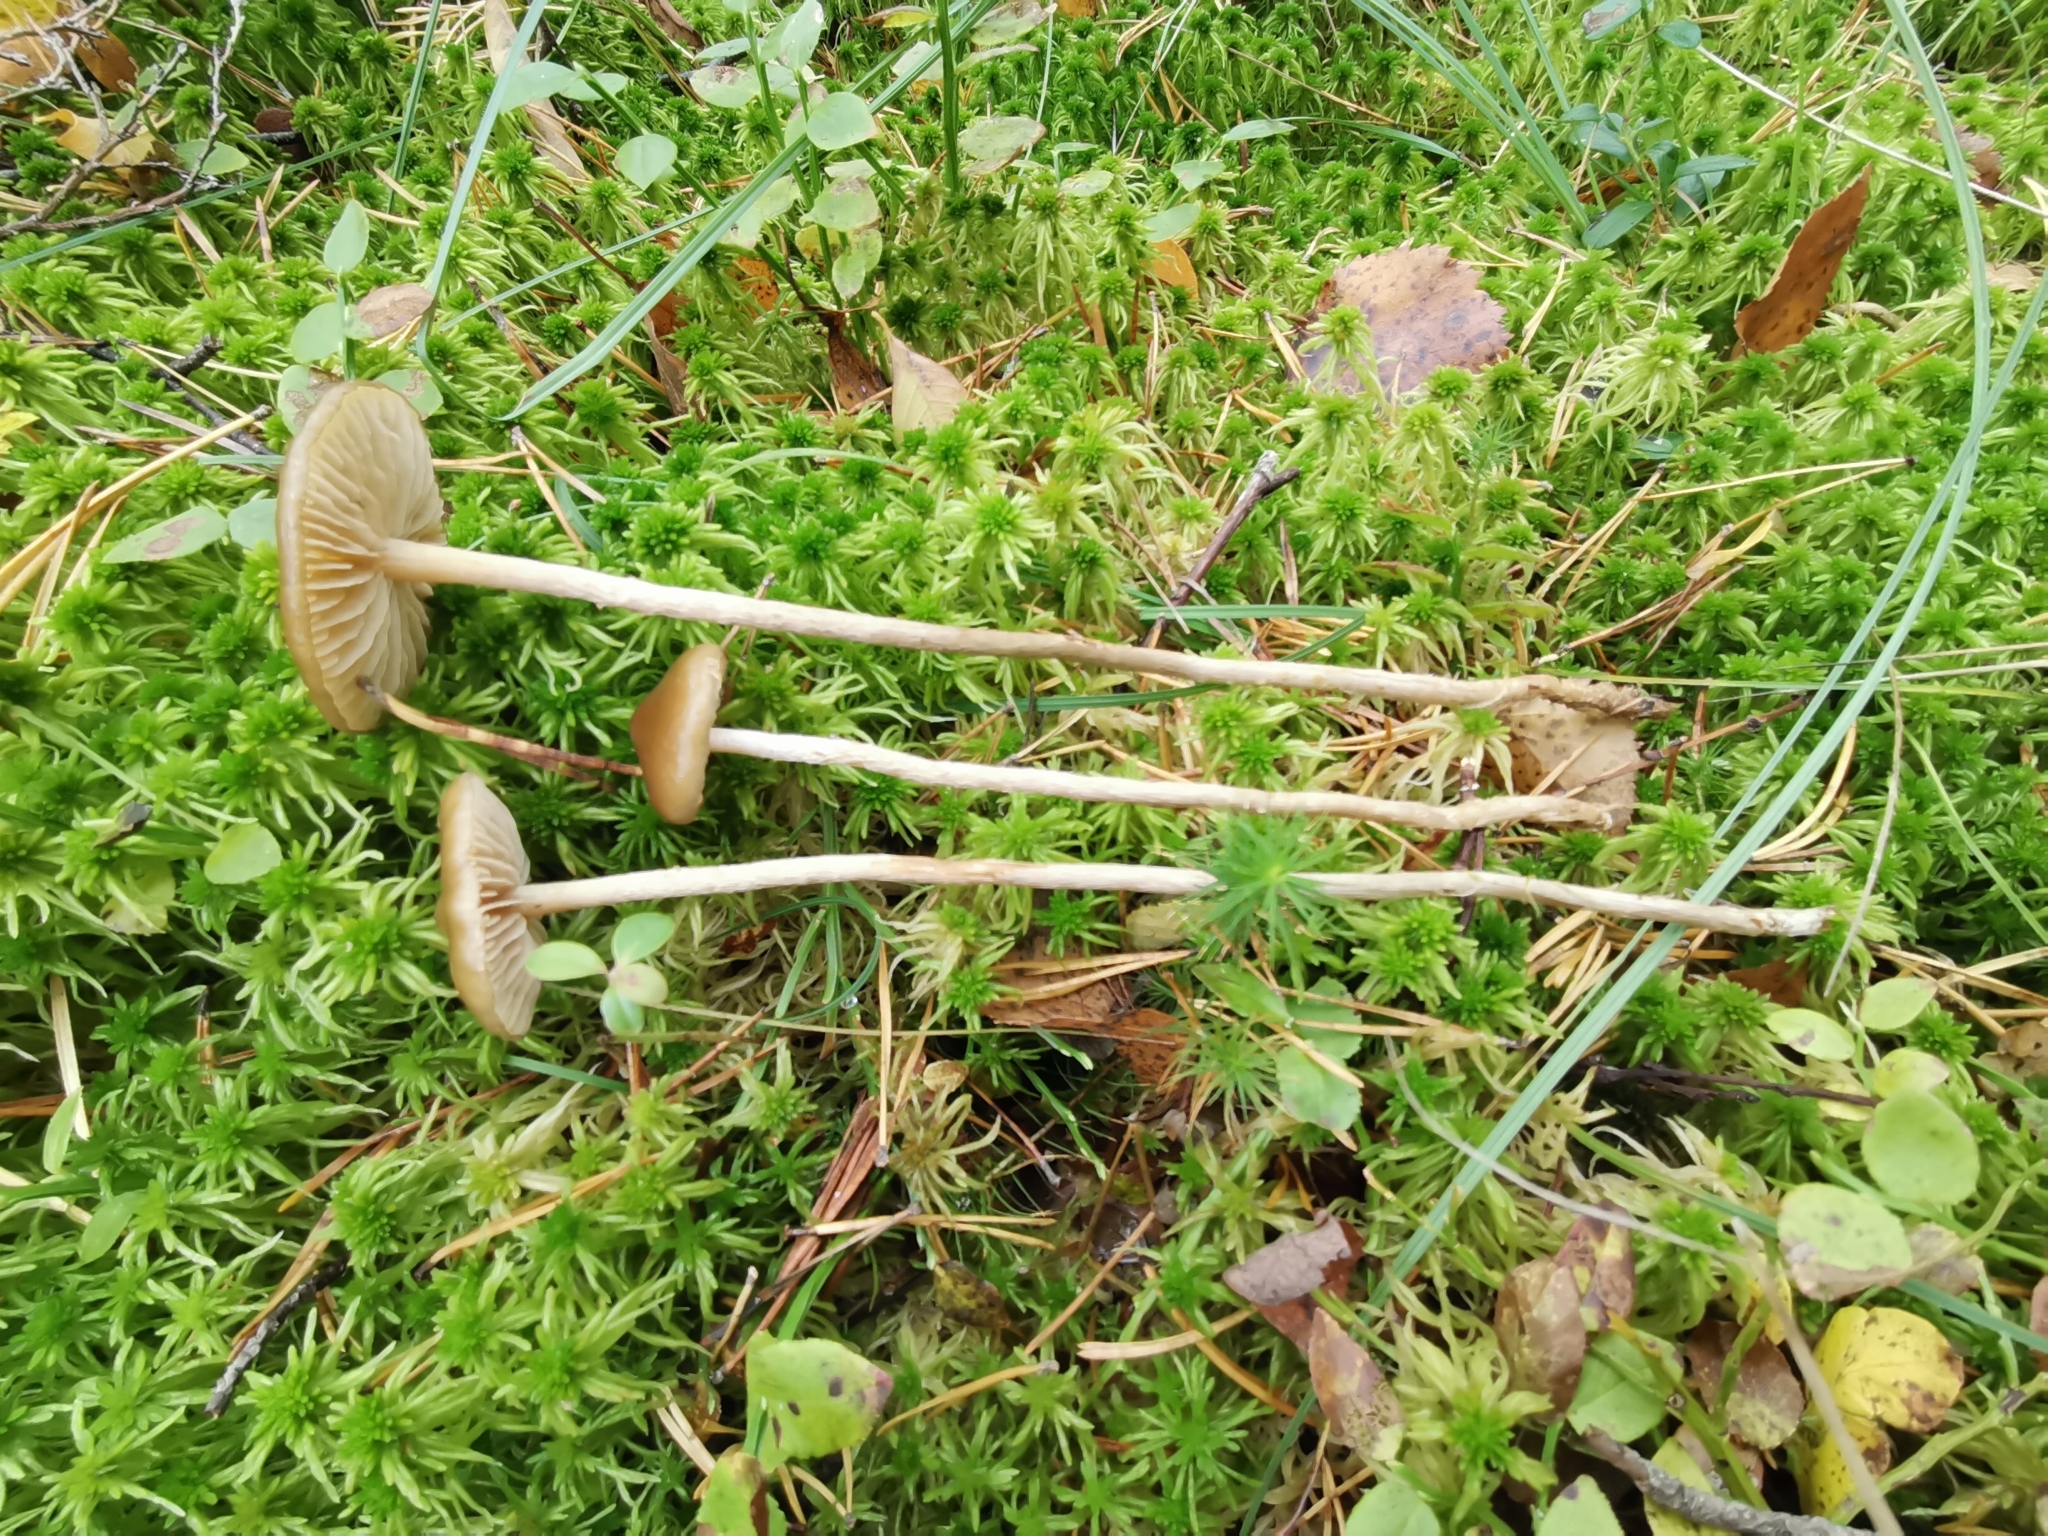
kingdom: Fungi
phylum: Basidiomycota
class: Agaricomycetes
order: Agaricales
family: Strophariaceae
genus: Hypholoma
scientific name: Hypholoma myosotis
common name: Olive brownie
